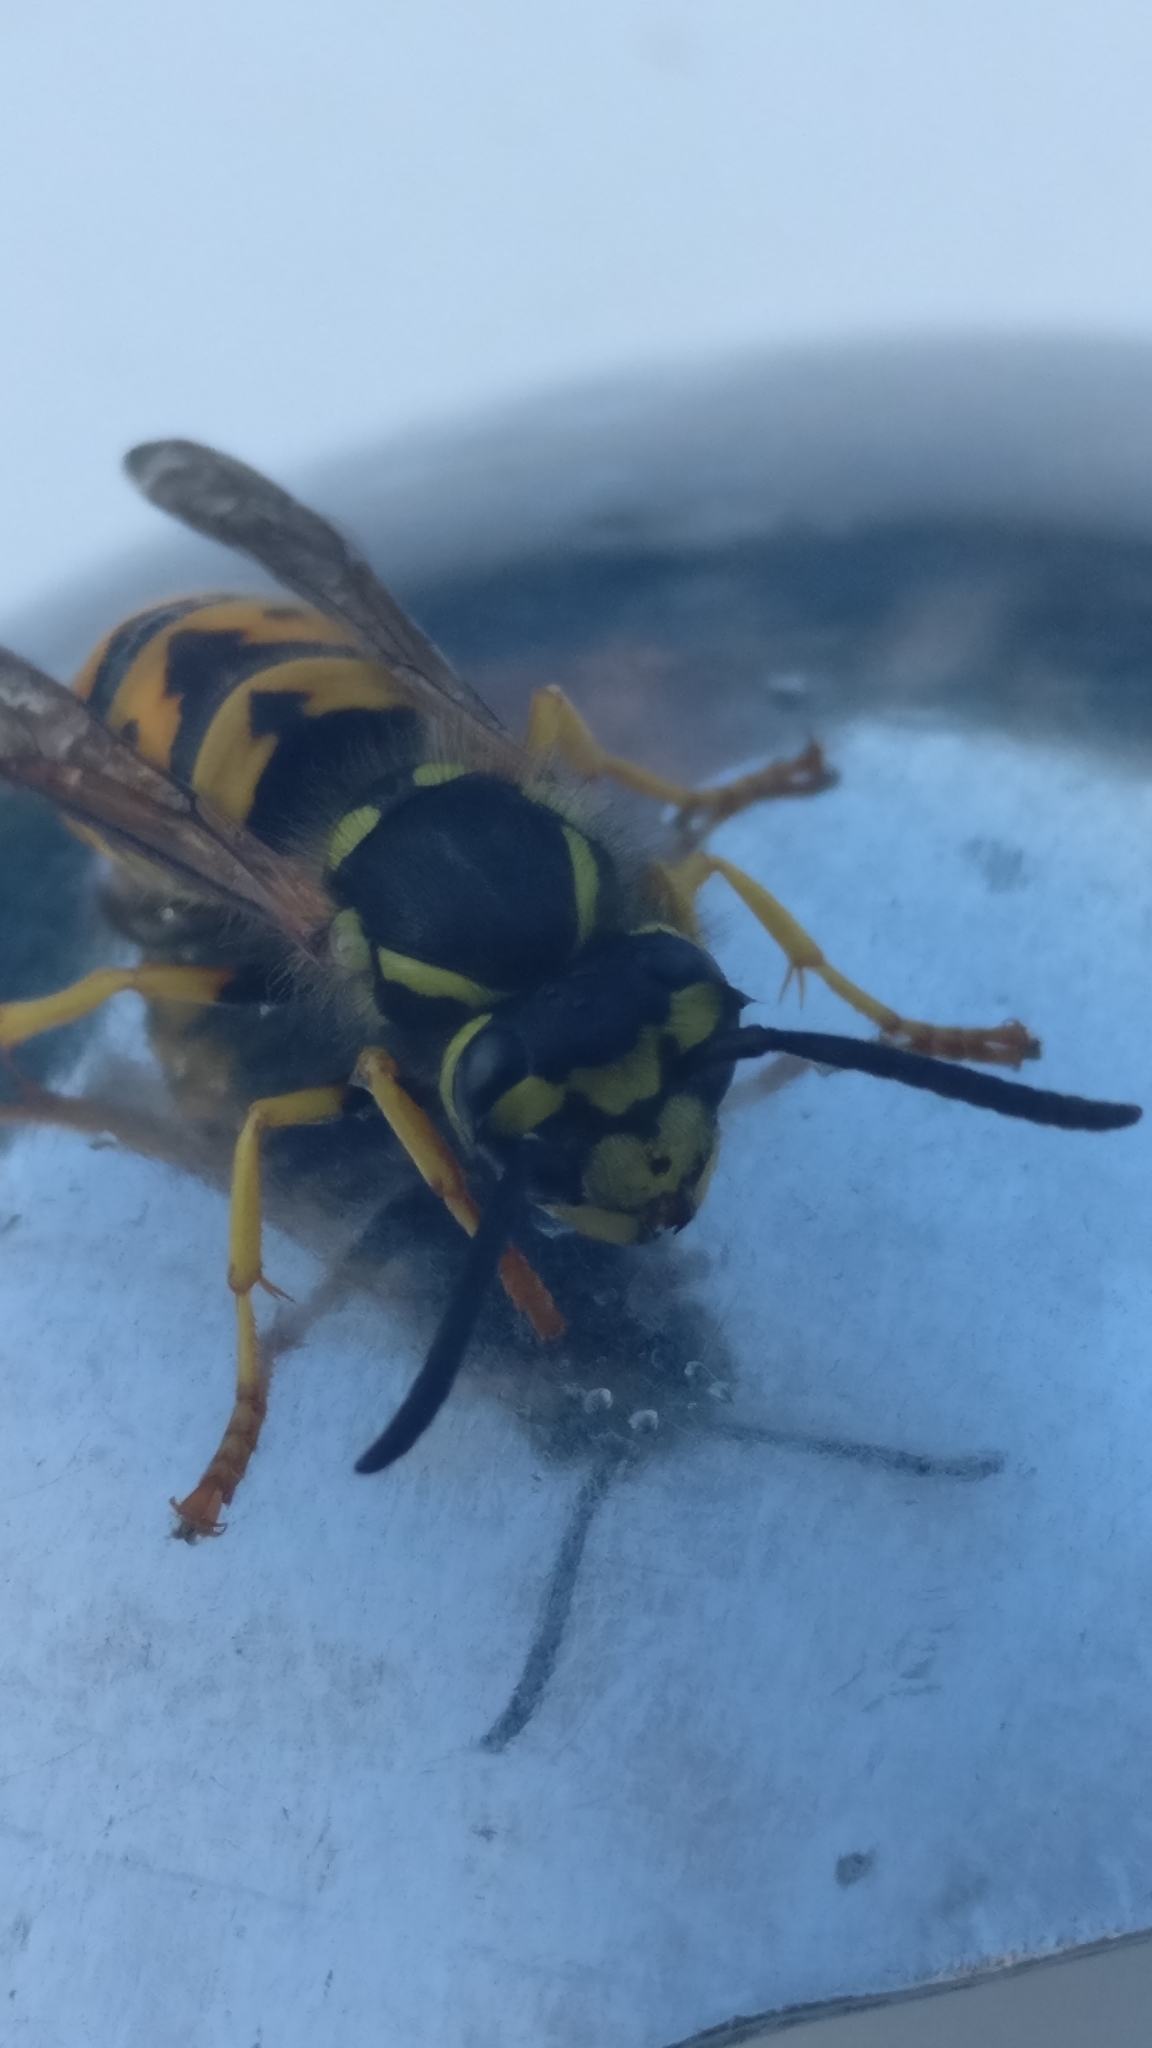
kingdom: Animalia
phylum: Arthropoda
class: Insecta
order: Hymenoptera
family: Vespidae
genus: Vespula
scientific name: Vespula germanica
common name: German wasp
